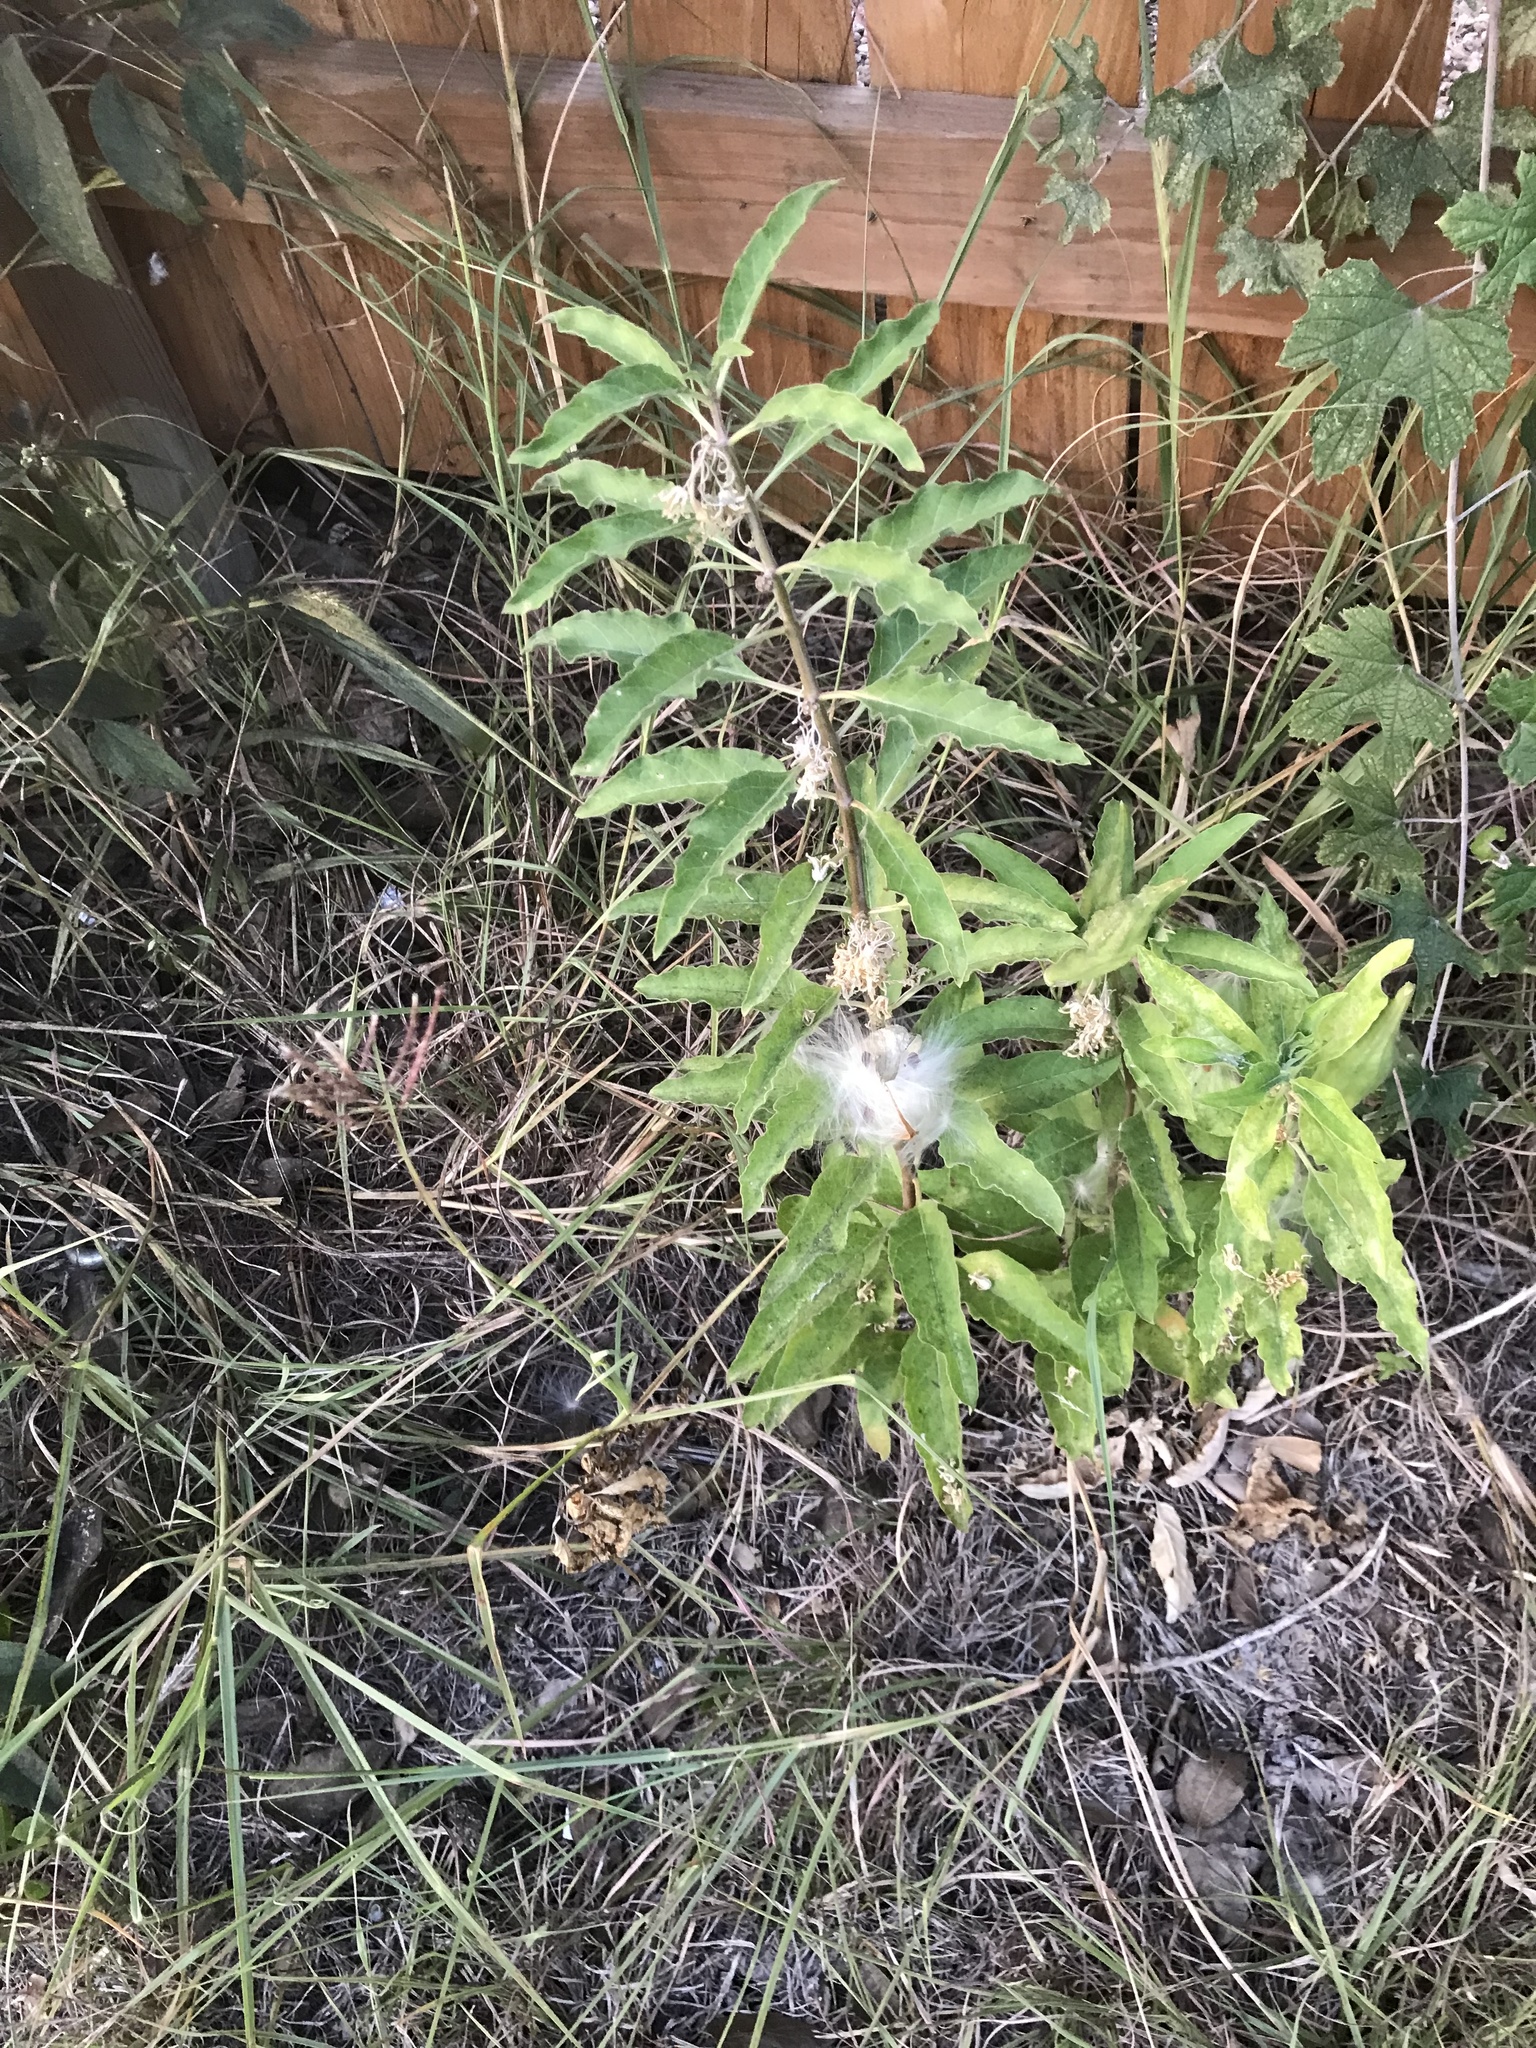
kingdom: Plantae
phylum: Tracheophyta
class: Magnoliopsida
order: Gentianales
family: Apocynaceae
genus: Asclepias
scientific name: Asclepias oenotheroides
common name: Zizotes milkweed
